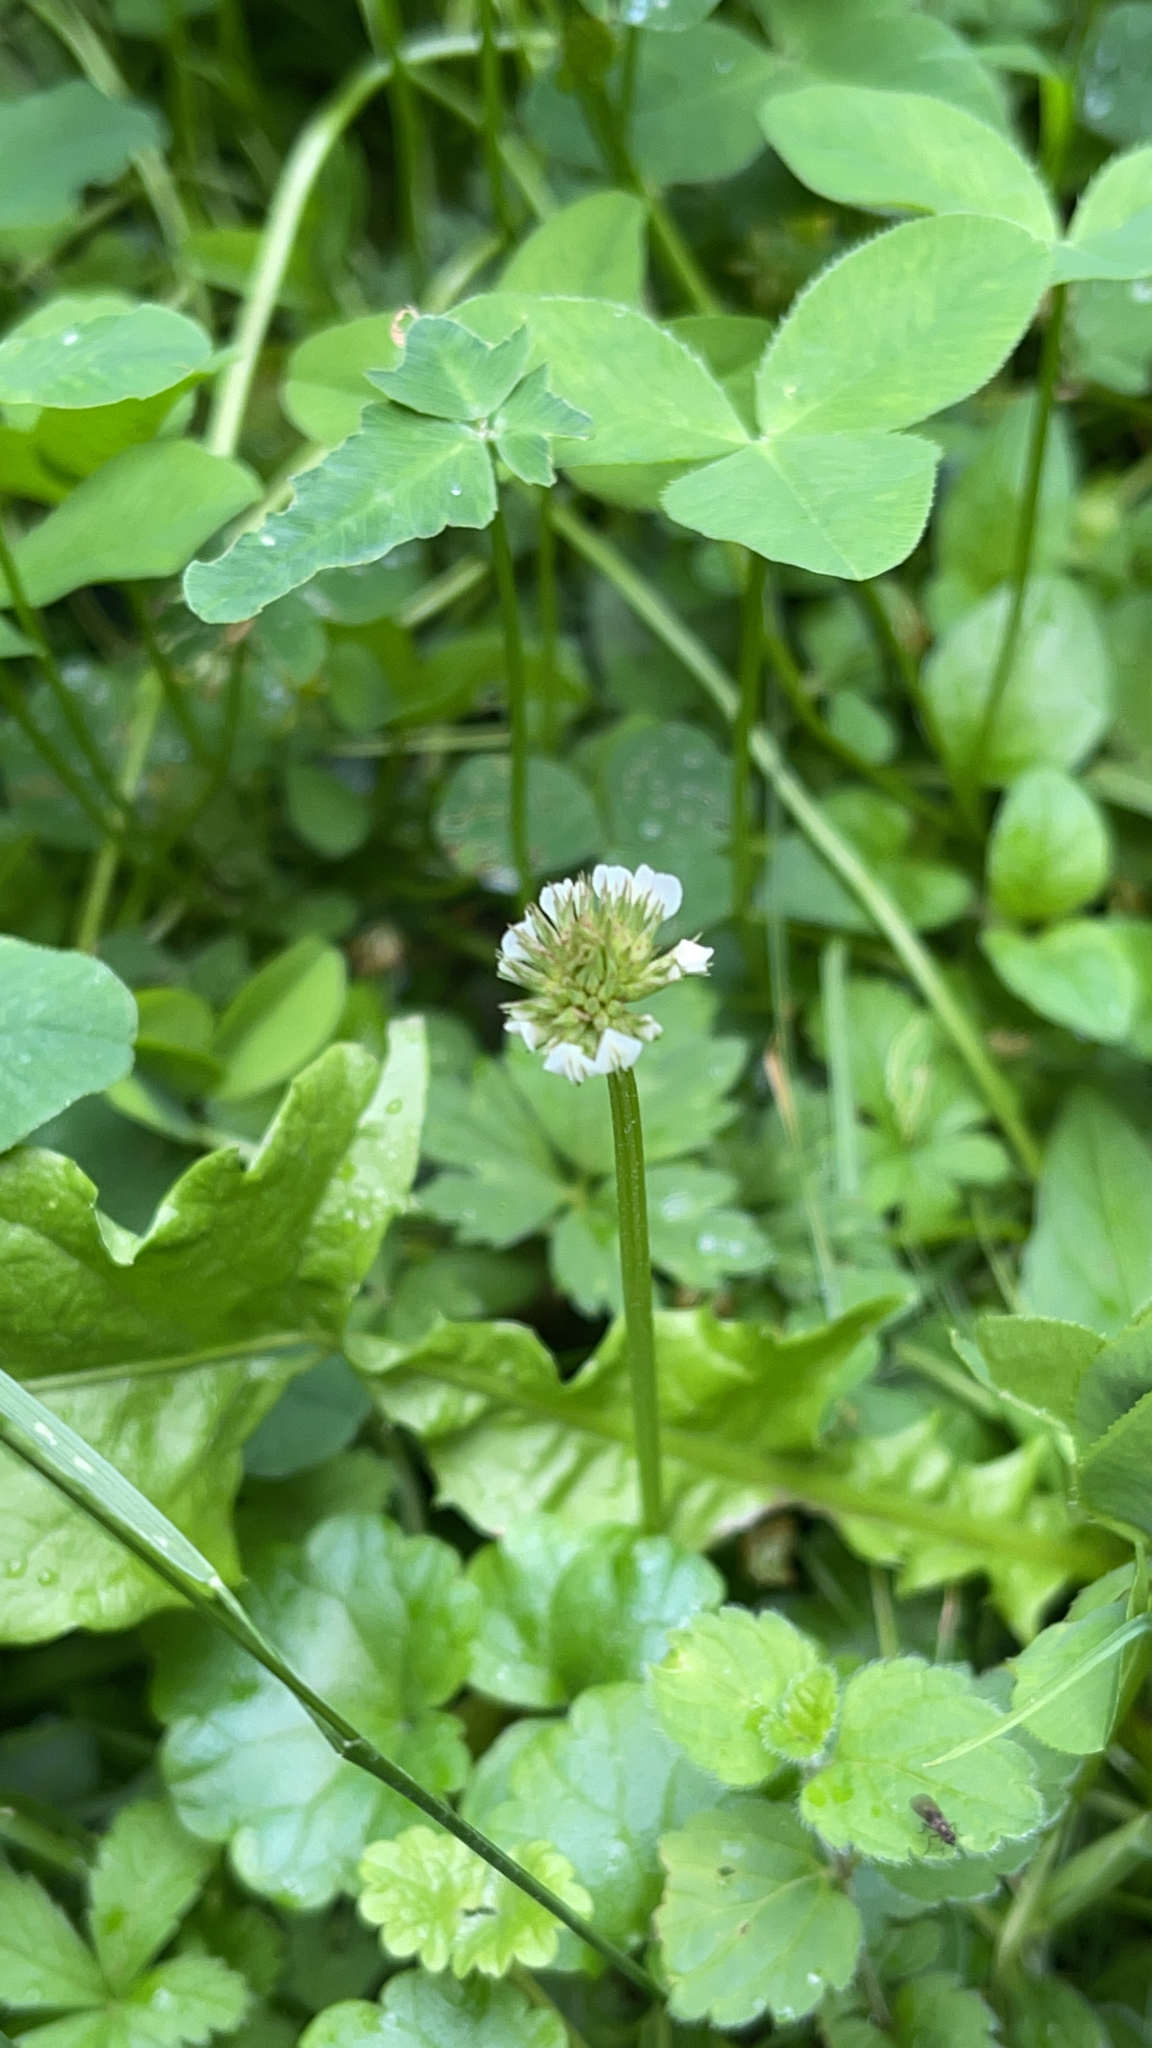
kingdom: Plantae
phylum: Tracheophyta
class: Magnoliopsida
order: Fabales
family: Fabaceae
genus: Trifolium
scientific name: Trifolium repens
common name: White clover
